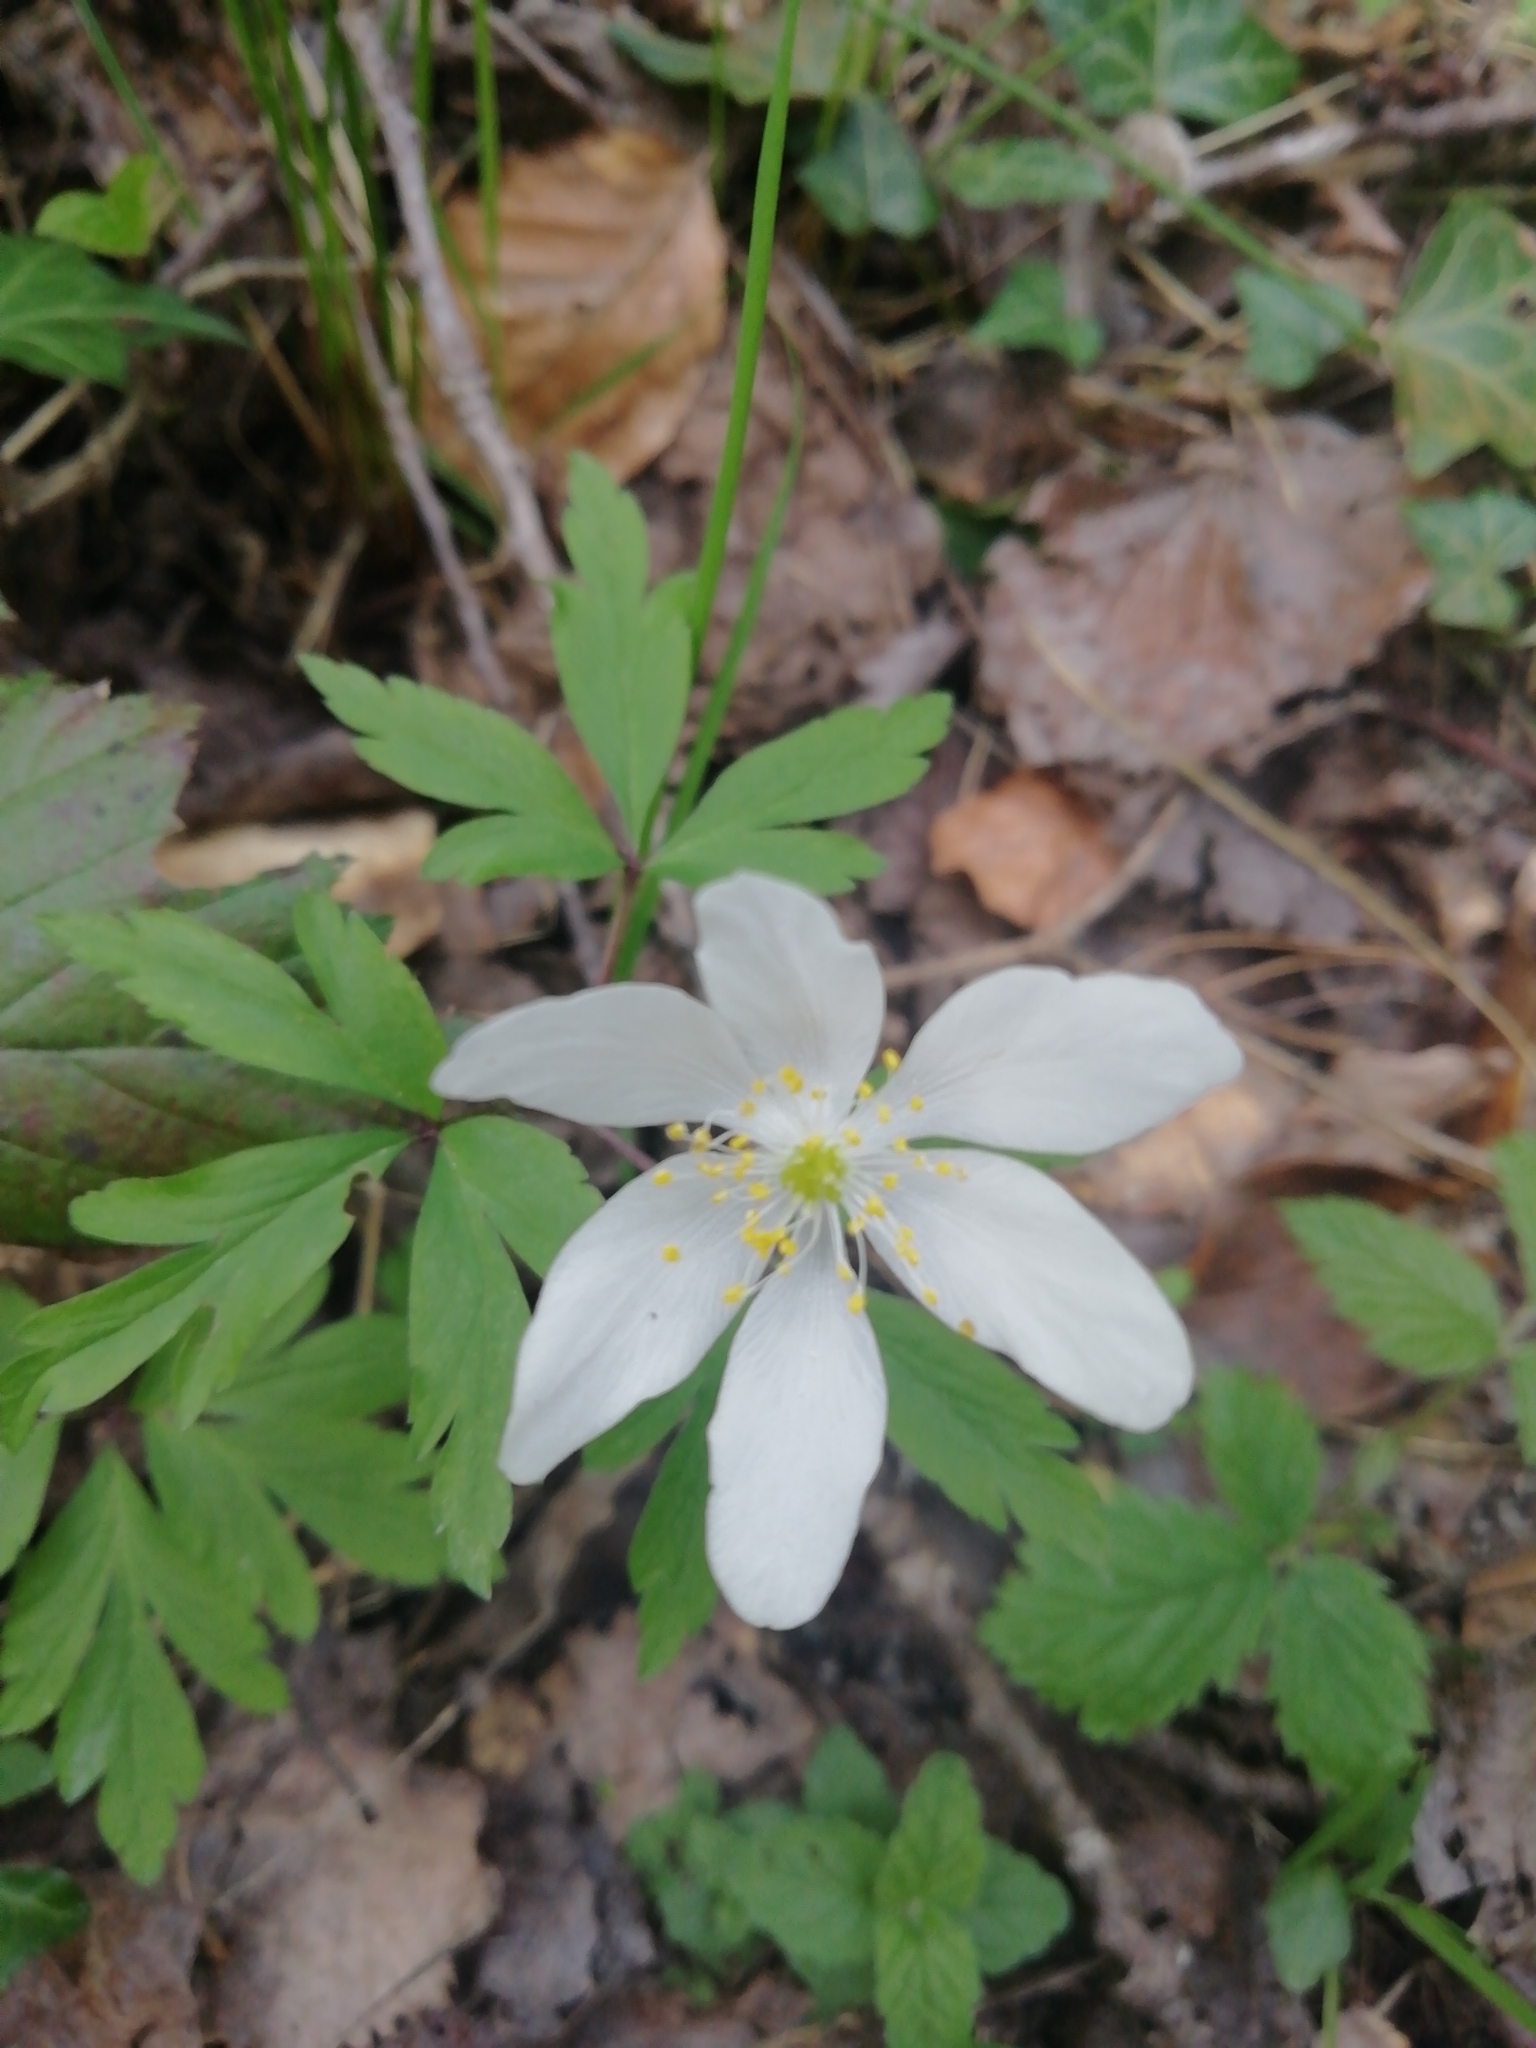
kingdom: Plantae
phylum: Tracheophyta
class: Magnoliopsida
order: Ranunculales
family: Ranunculaceae
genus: Anemone
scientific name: Anemone nemorosa
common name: Wood anemone
